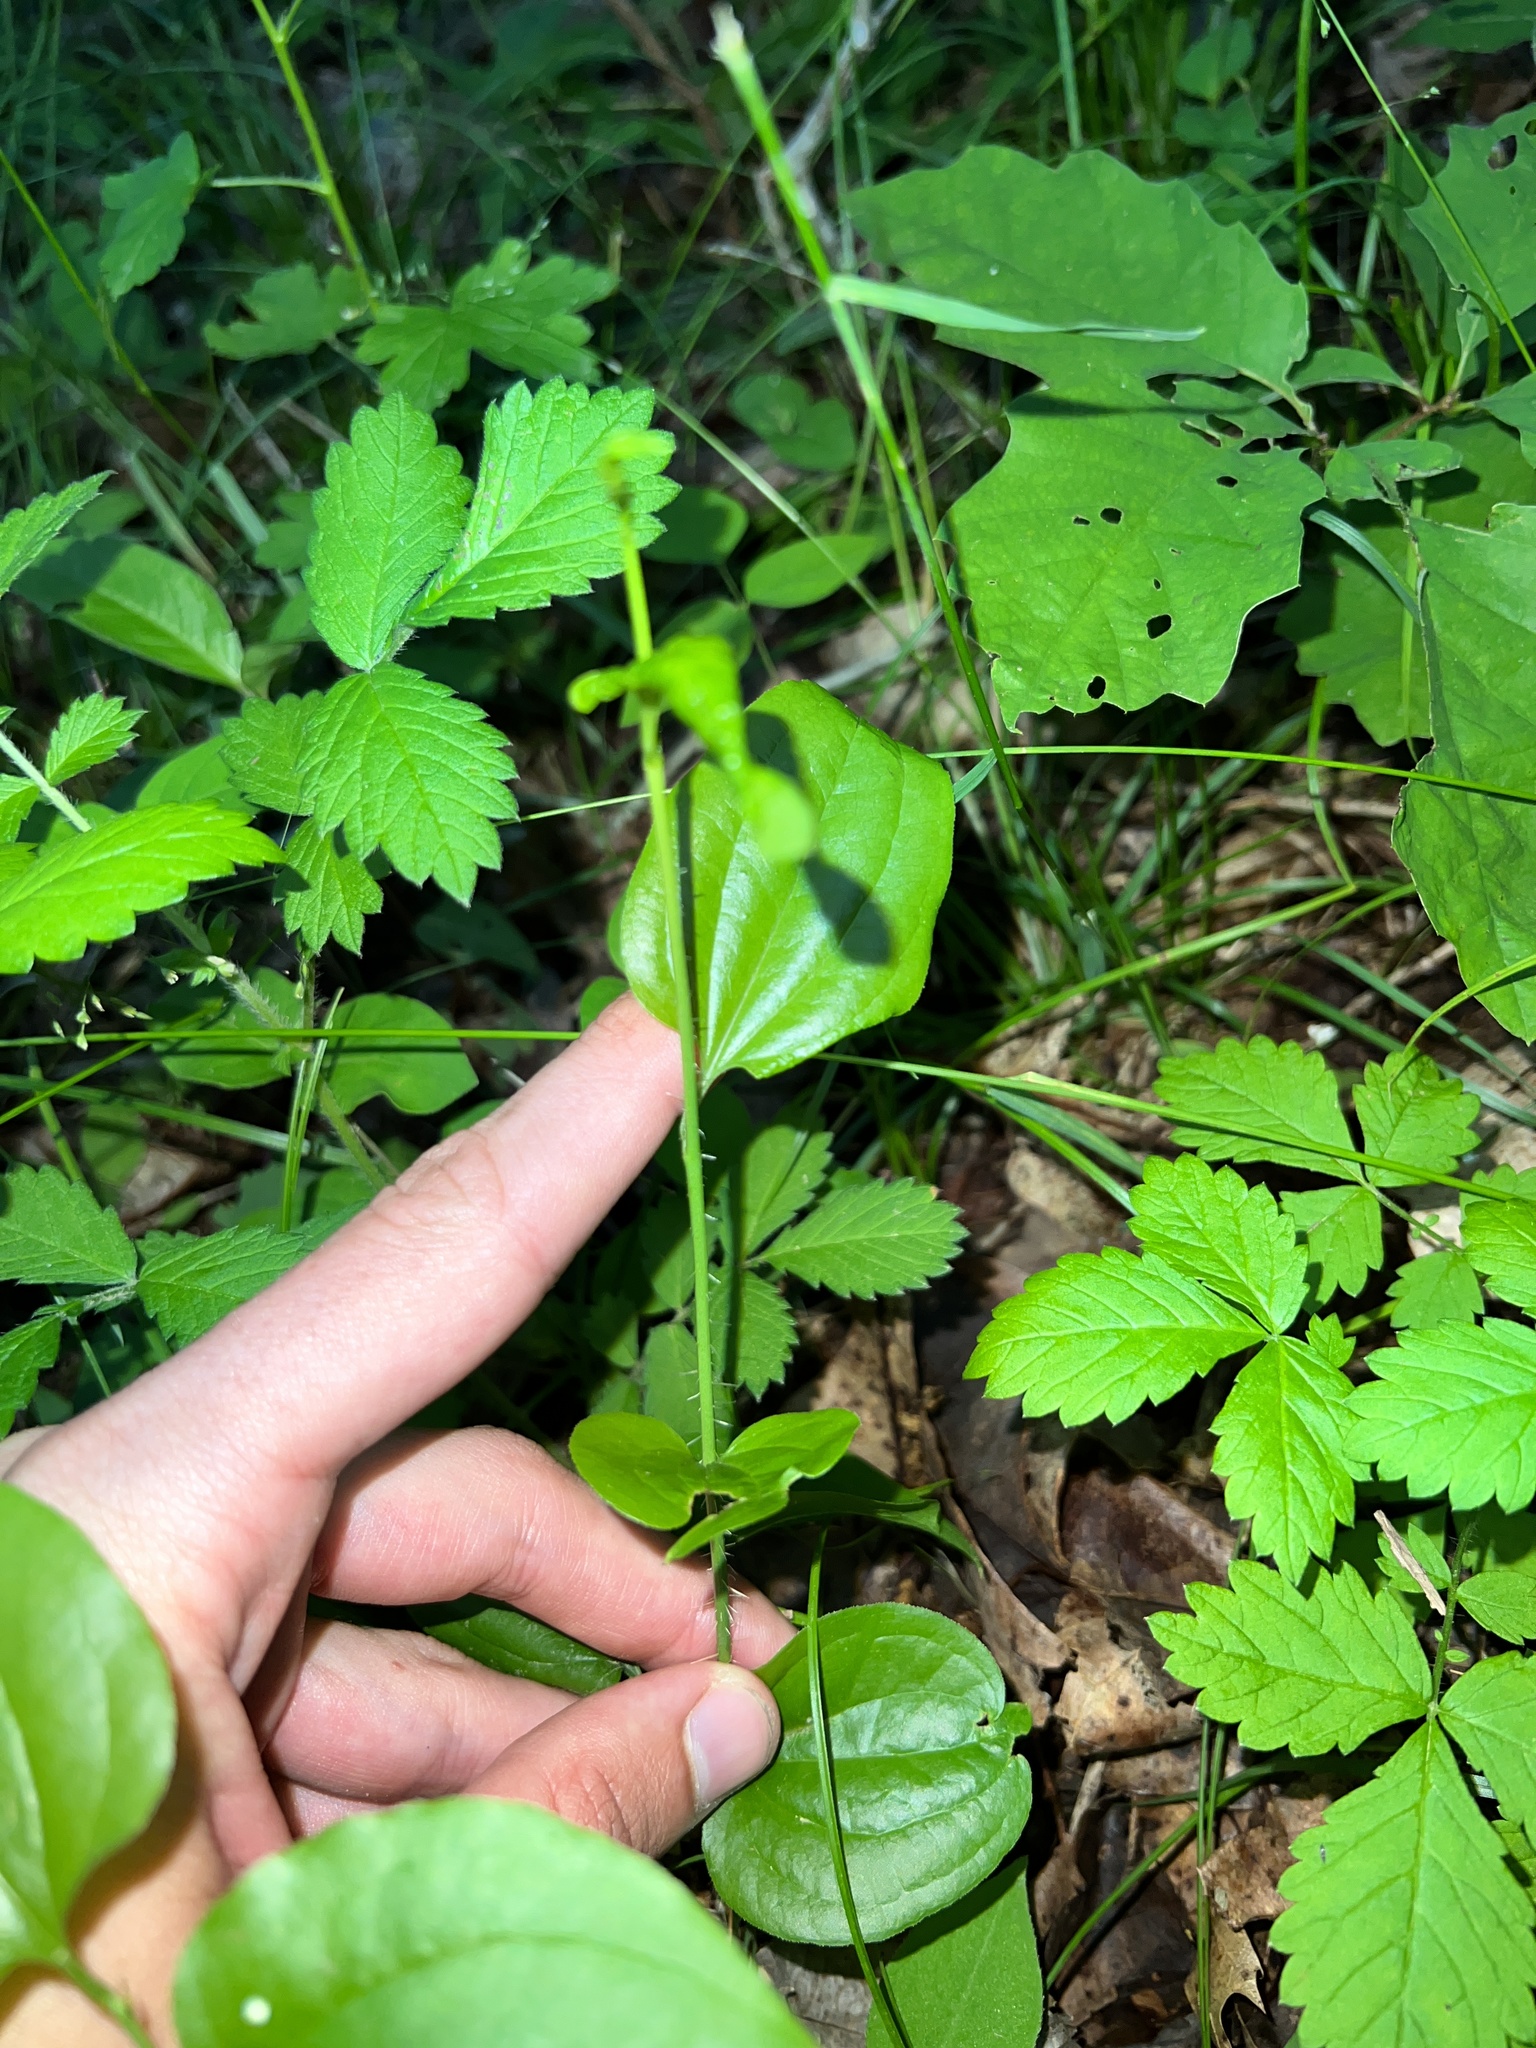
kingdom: Plantae
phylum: Tracheophyta
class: Liliopsida
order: Liliales
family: Smilacaceae
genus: Smilax
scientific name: Smilax tamnoides
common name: Hellfetter
